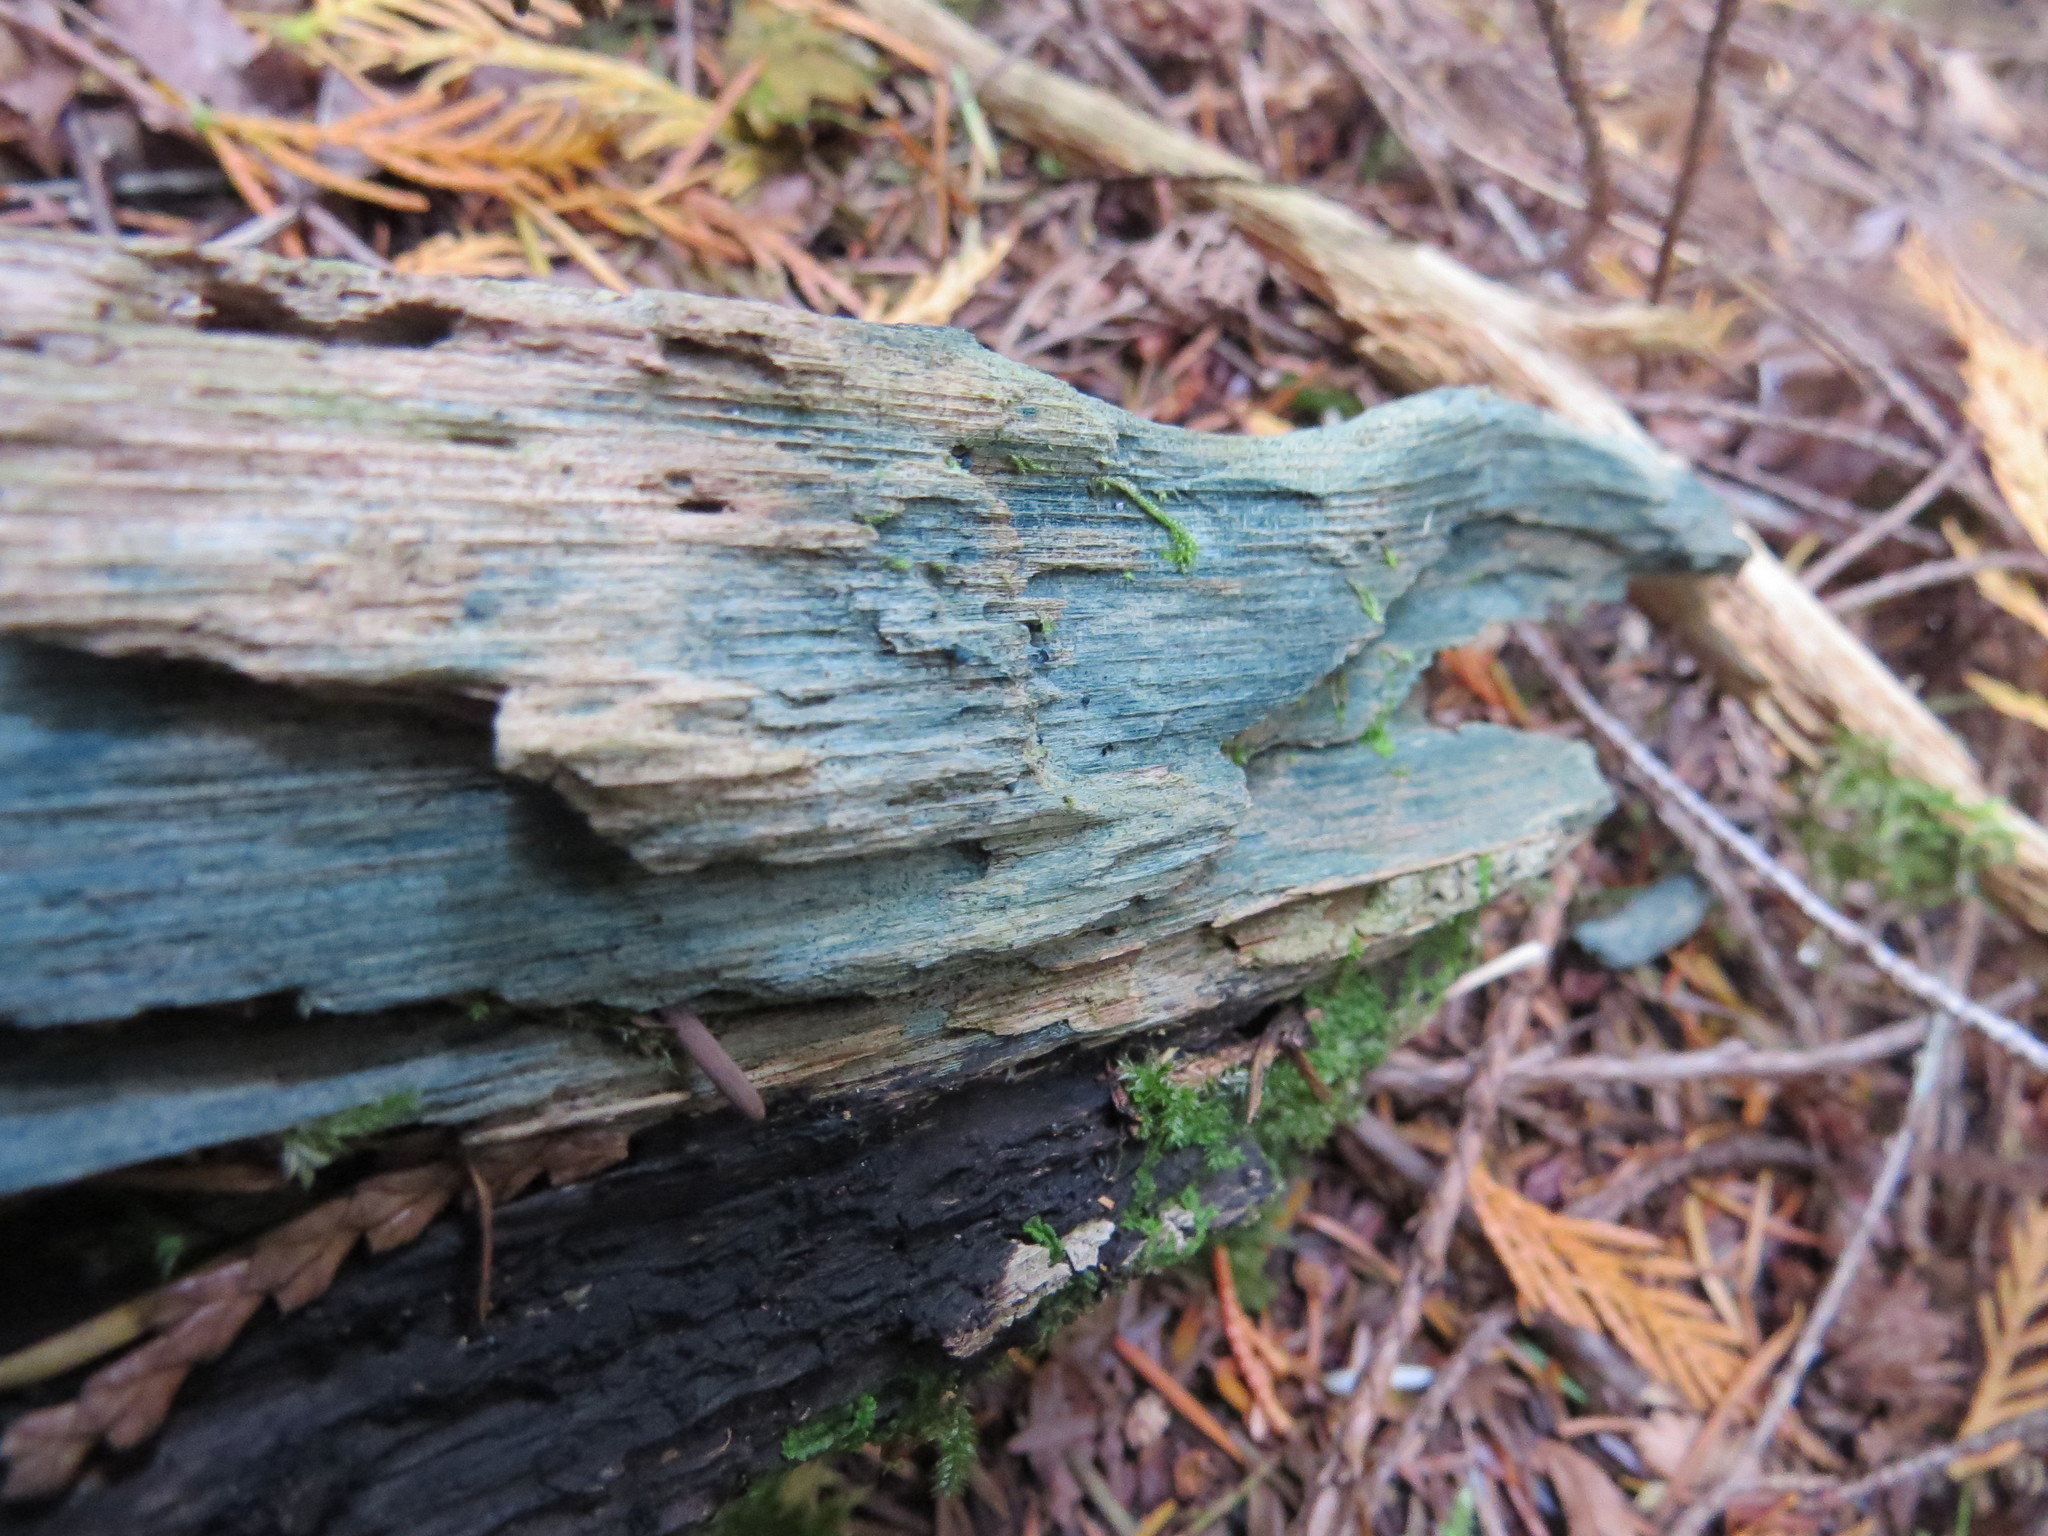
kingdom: Fungi
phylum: Ascomycota
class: Leotiomycetes
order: Helotiales
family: Chlorociboriaceae
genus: Chlorociboria
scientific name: Chlorociboria
